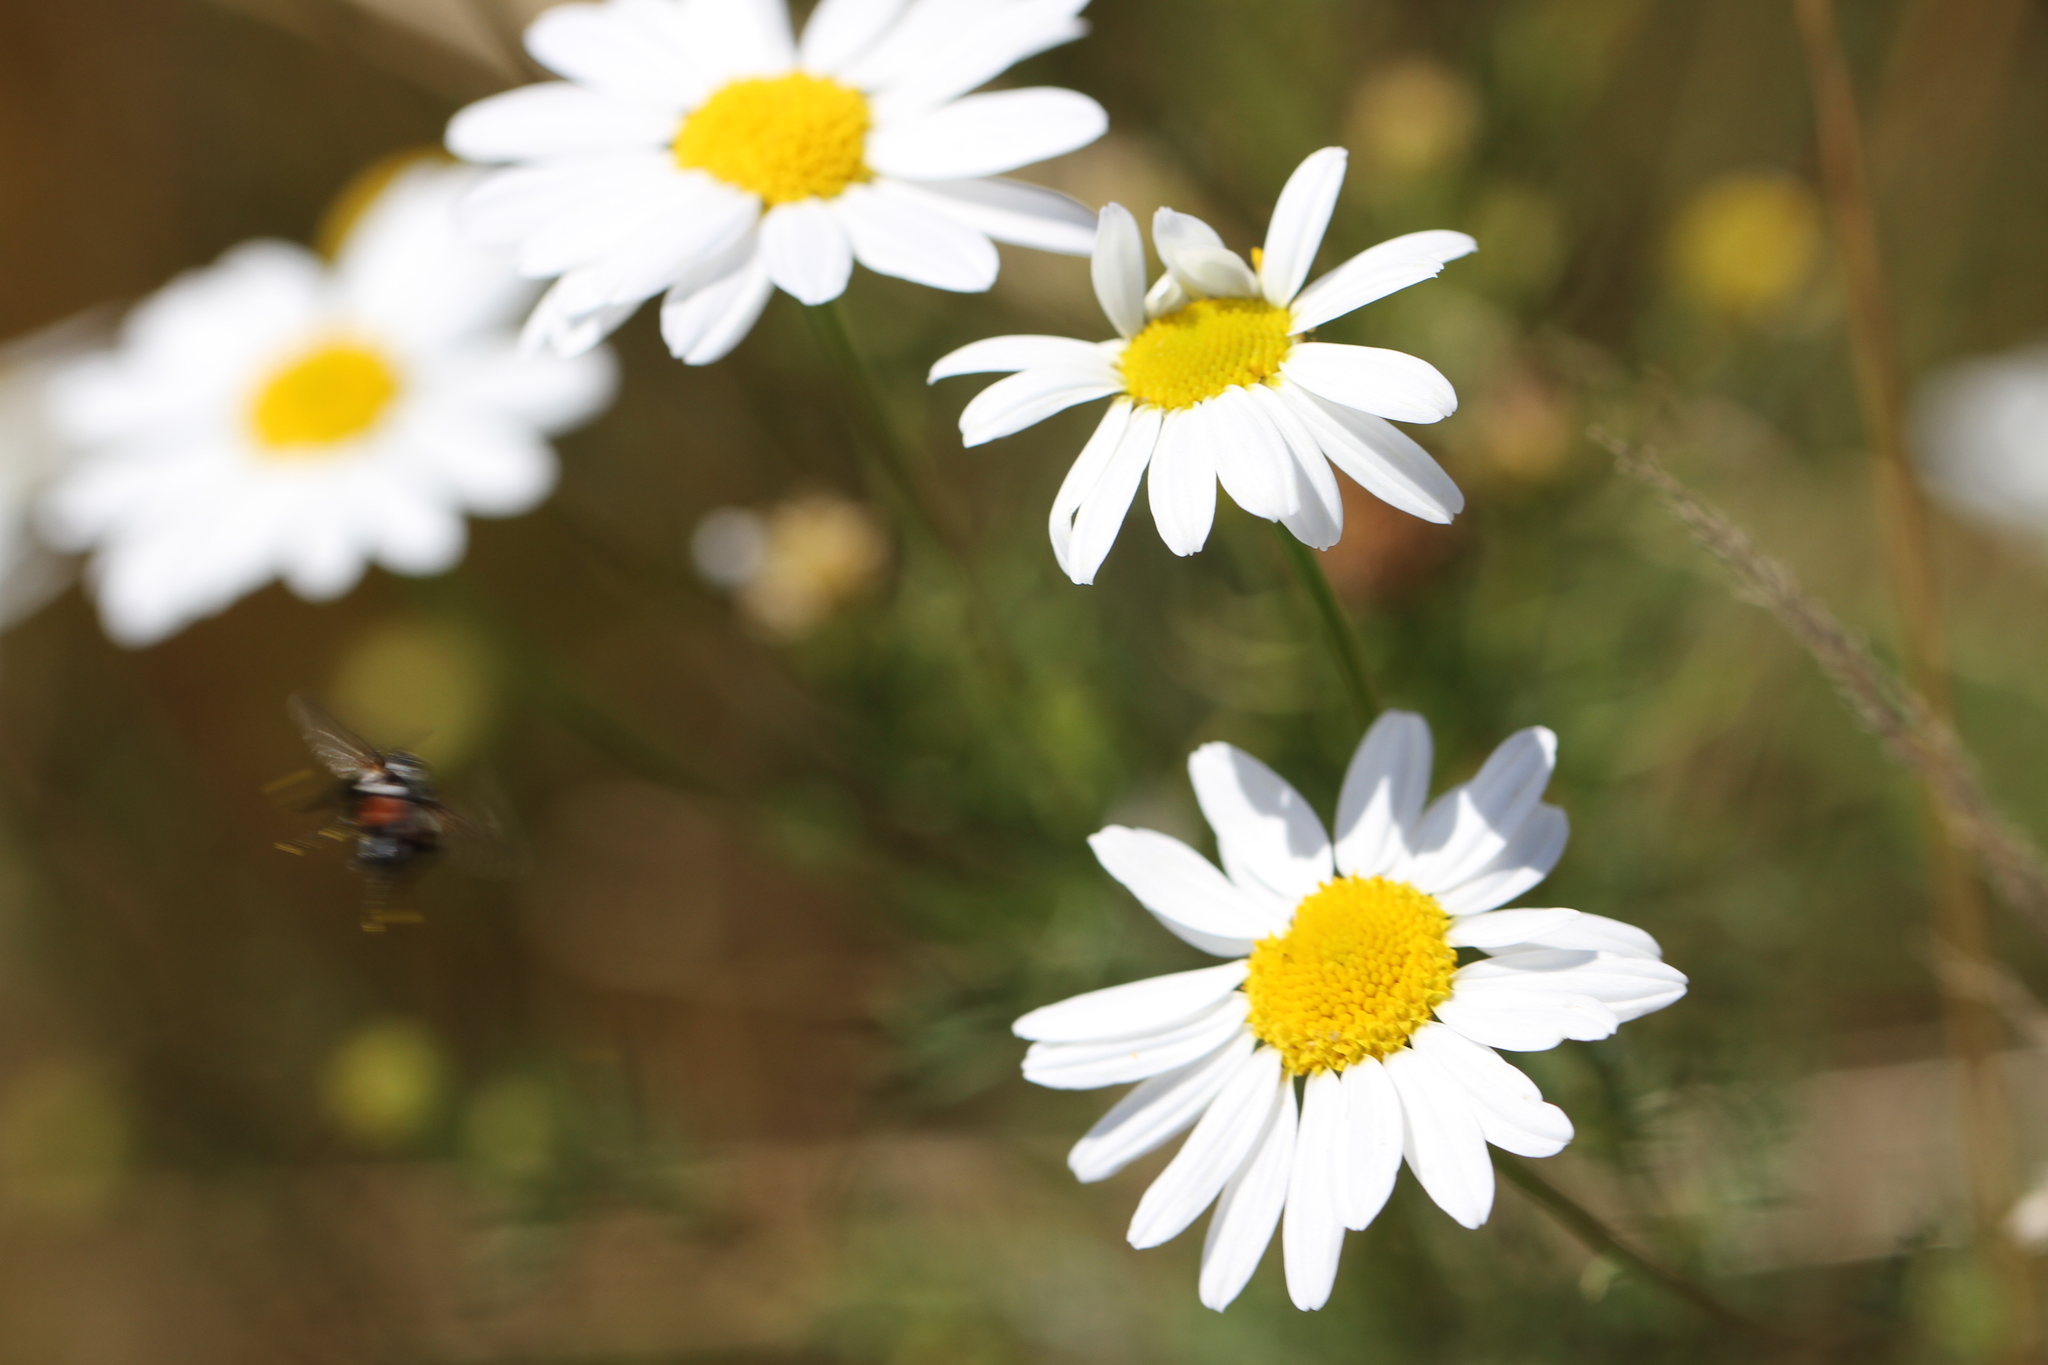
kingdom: Plantae
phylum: Tracheophyta
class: Magnoliopsida
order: Asterales
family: Asteraceae
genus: Tripleurospermum
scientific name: Tripleurospermum inodorum
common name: Scentless mayweed
